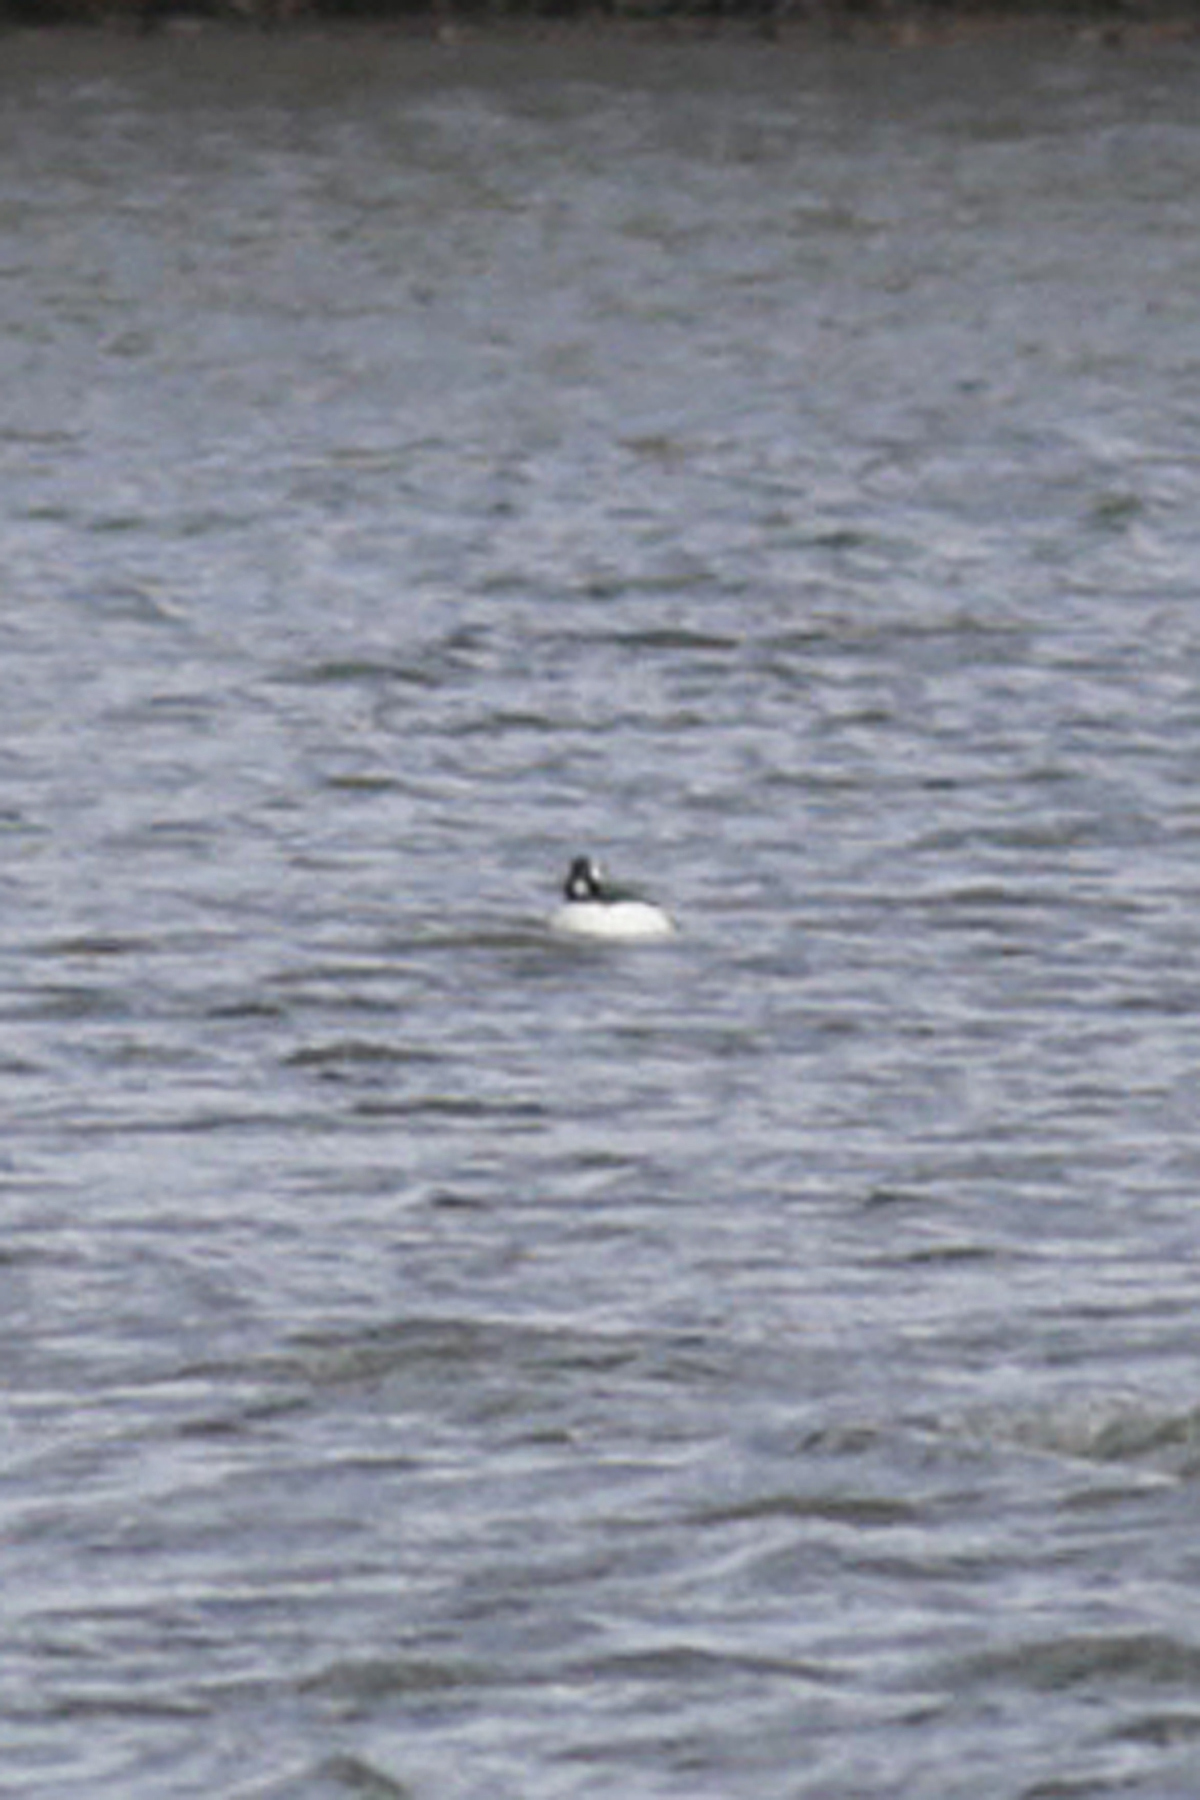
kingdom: Animalia
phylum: Chordata
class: Aves
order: Anseriformes
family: Anatidae
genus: Bucephala
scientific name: Bucephala albeola
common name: Bufflehead
